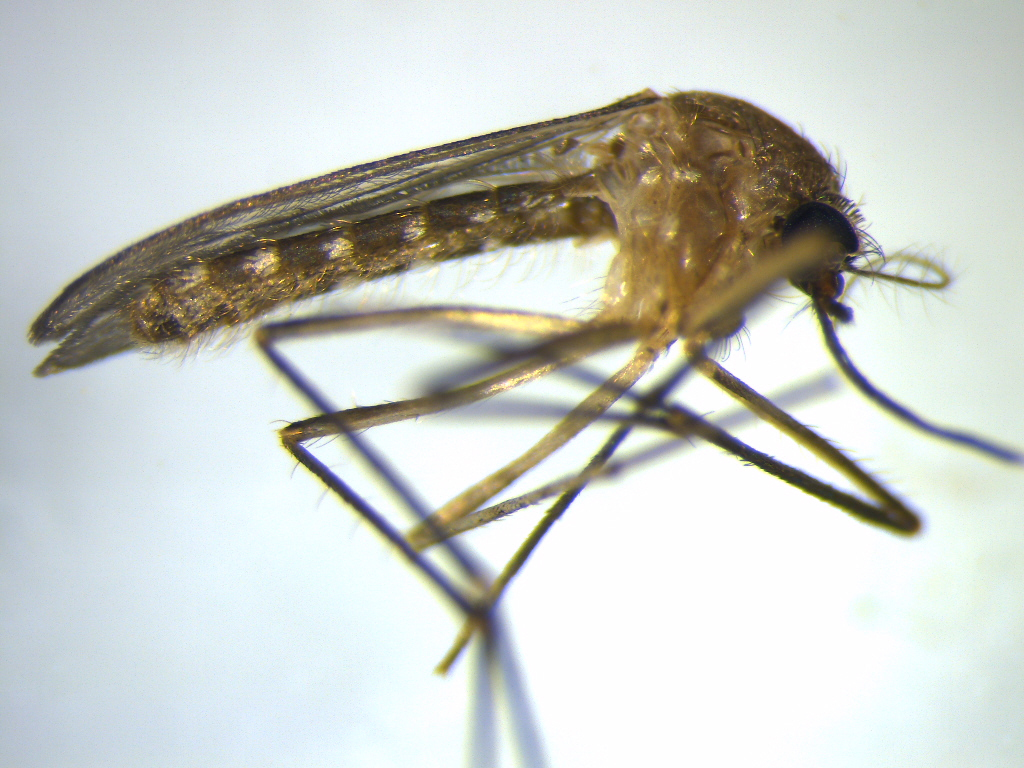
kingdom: Animalia
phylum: Arthropoda
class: Insecta
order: Diptera
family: Culicidae
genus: Culex
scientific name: Culex quinquefasciatus
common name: Southern house mosquito
